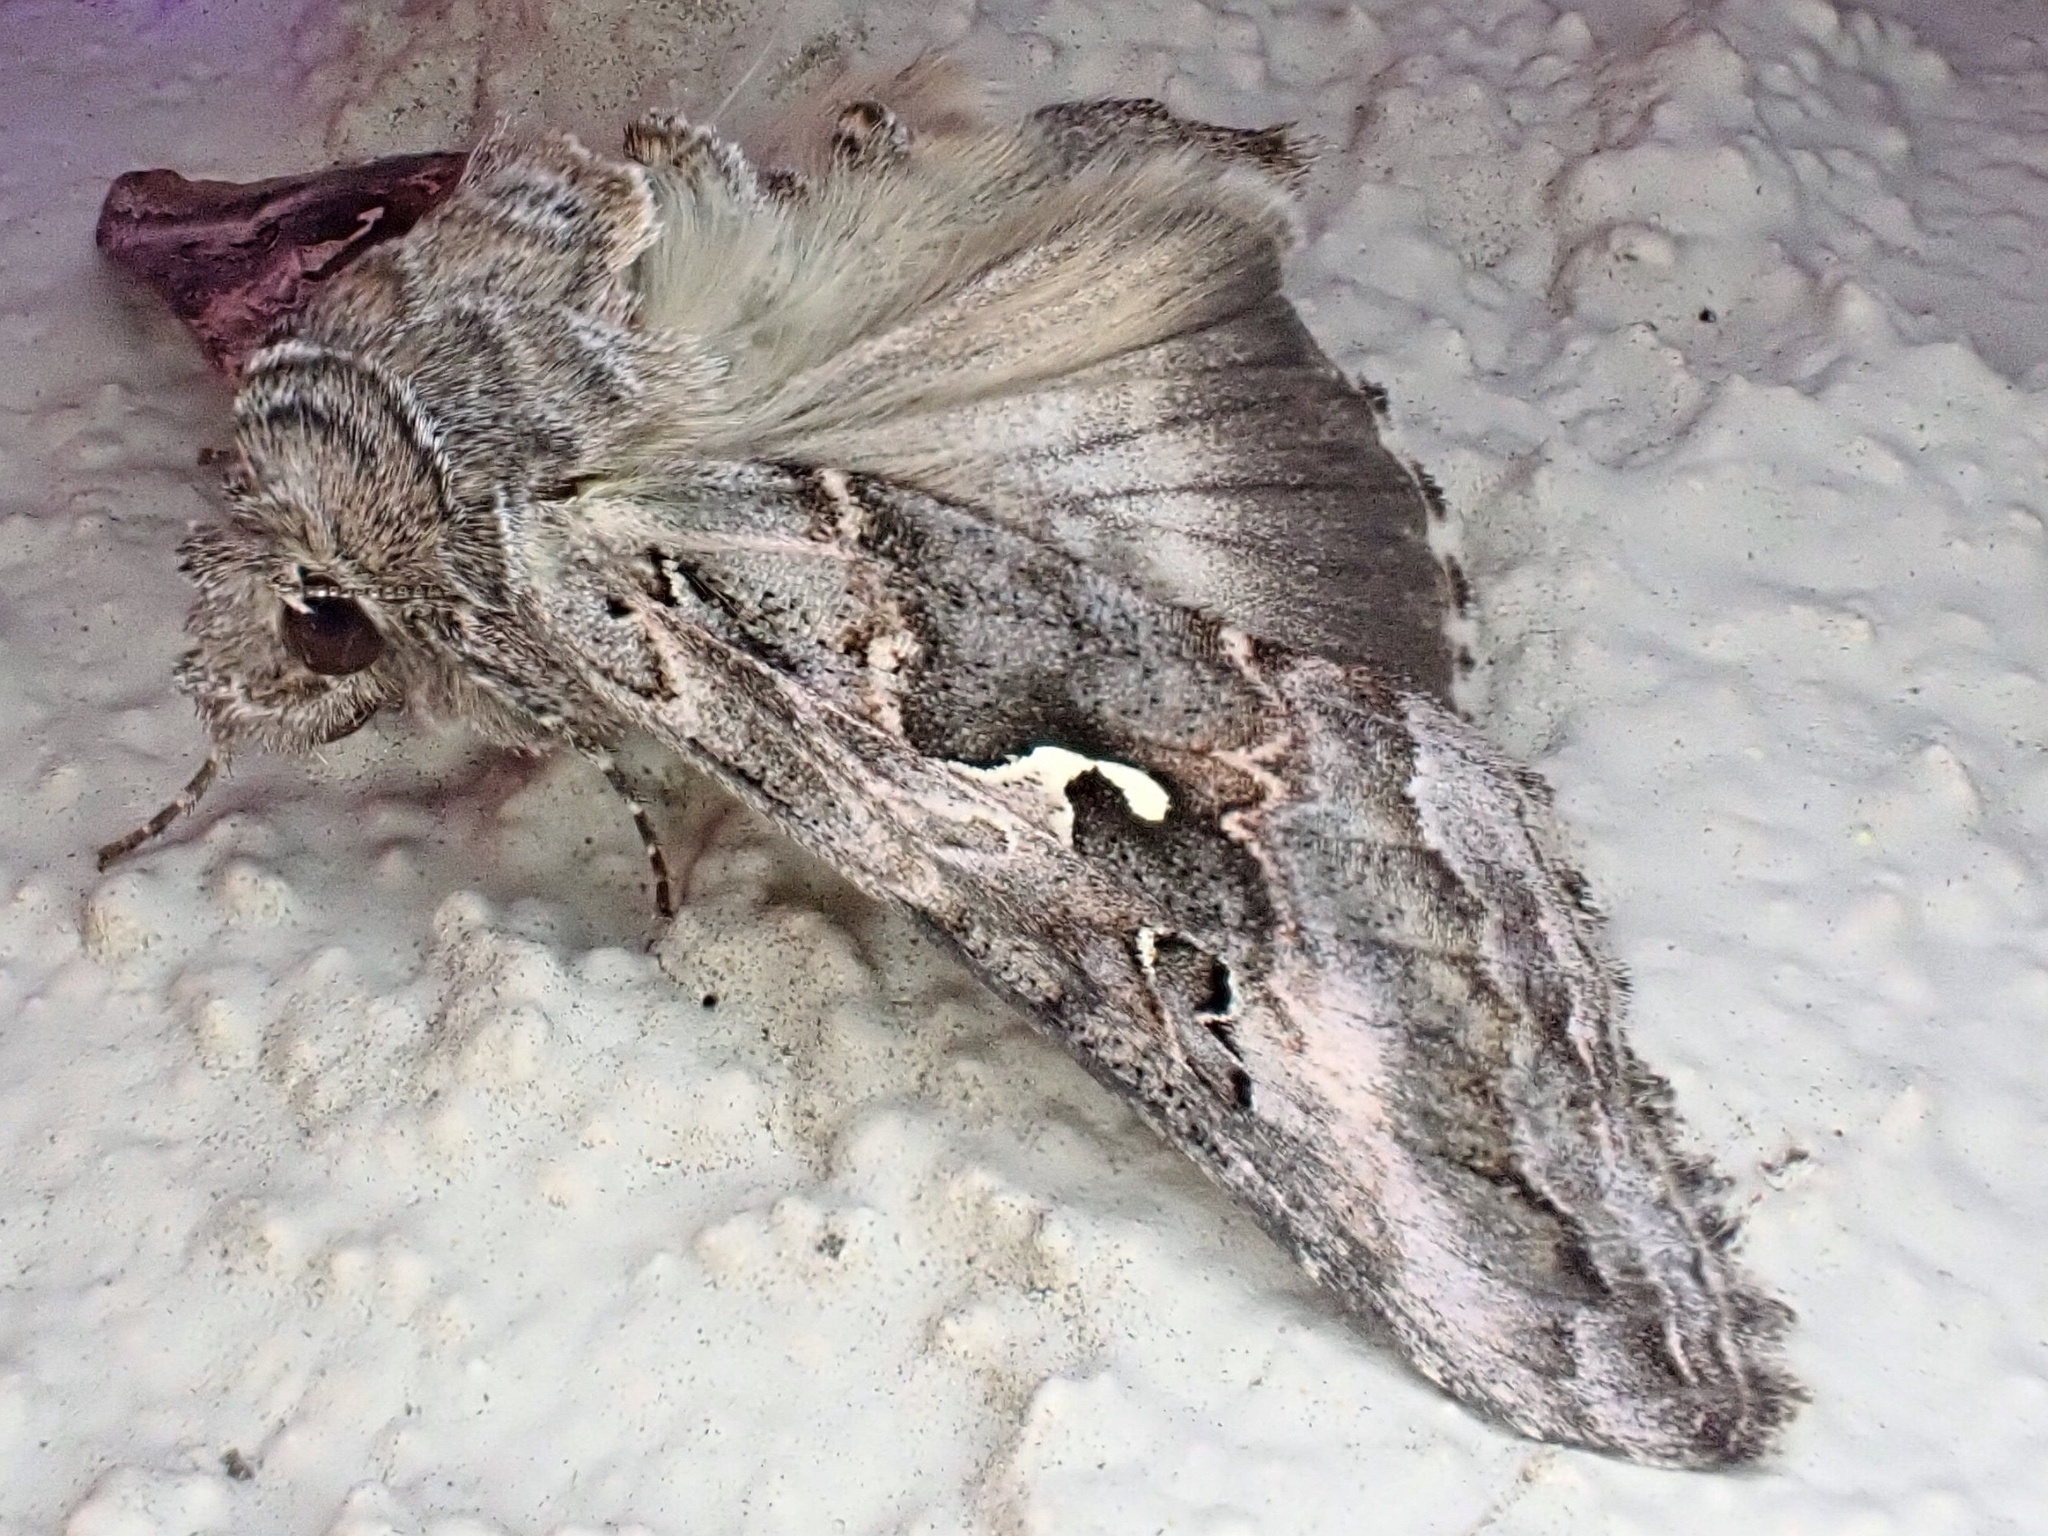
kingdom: Animalia
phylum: Arthropoda
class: Insecta
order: Lepidoptera
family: Noctuidae
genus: Autographa
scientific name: Autographa californica
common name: Alfalfa looper
